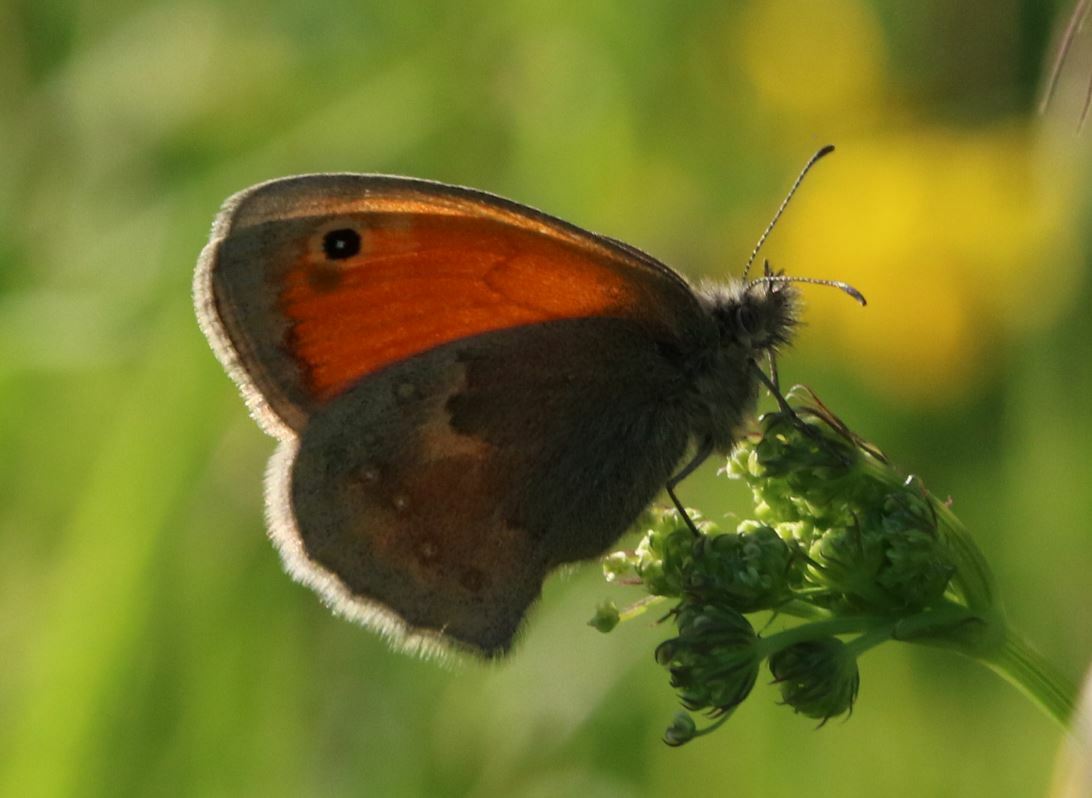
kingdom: Animalia
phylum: Arthropoda
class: Insecta
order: Lepidoptera
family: Nymphalidae
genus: Coenonympha
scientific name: Coenonympha pamphilus
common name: Small heath
